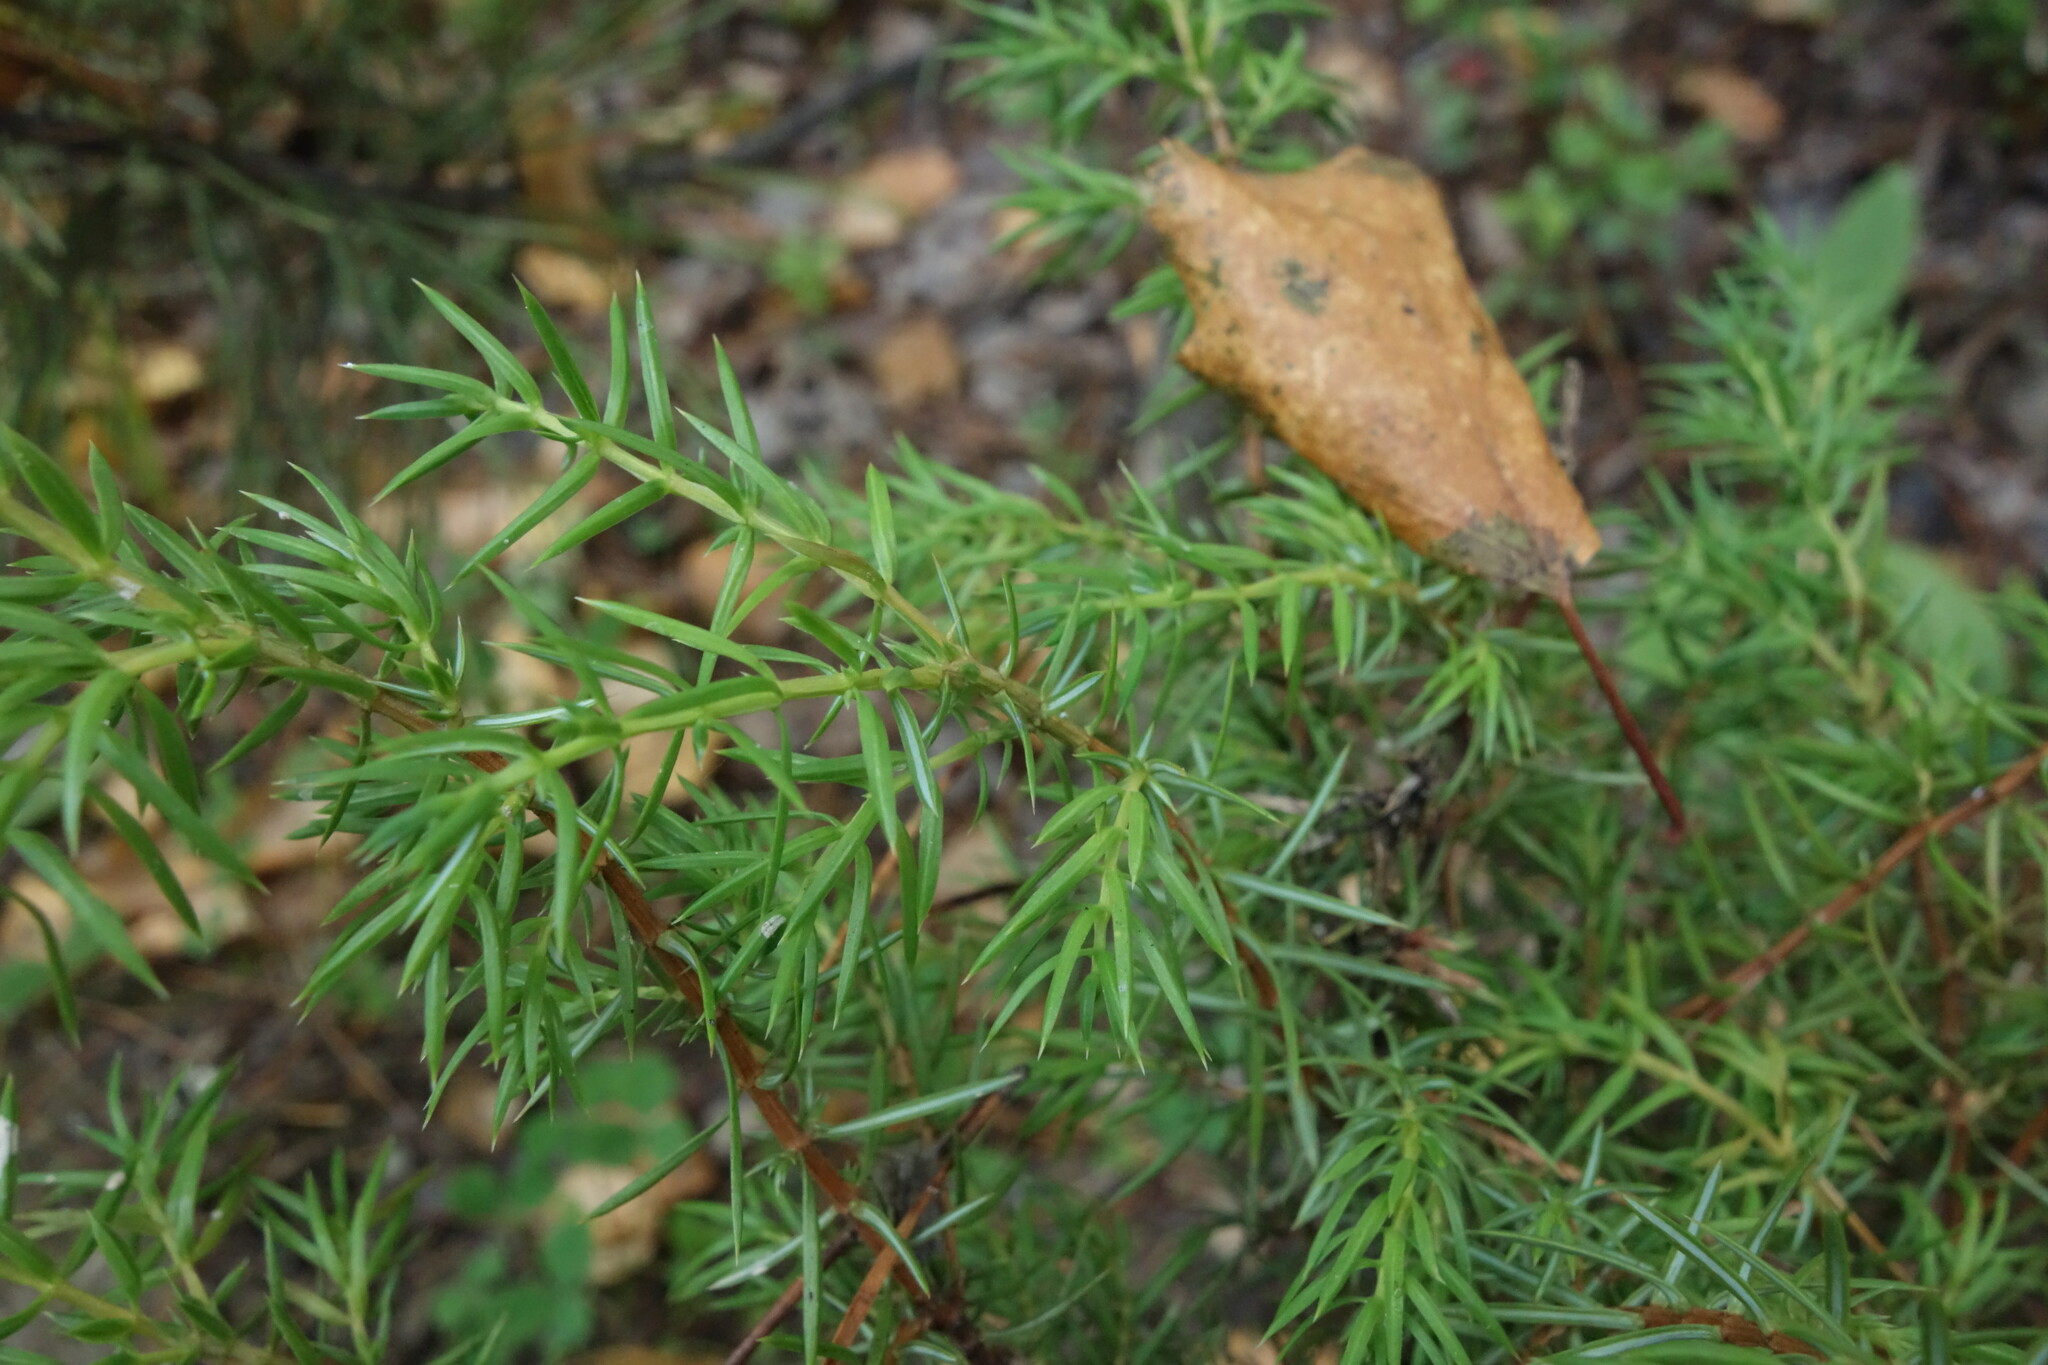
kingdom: Plantae
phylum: Tracheophyta
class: Pinopsida
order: Pinales
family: Cupressaceae
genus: Juniperus
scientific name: Juniperus communis
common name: Common juniper
